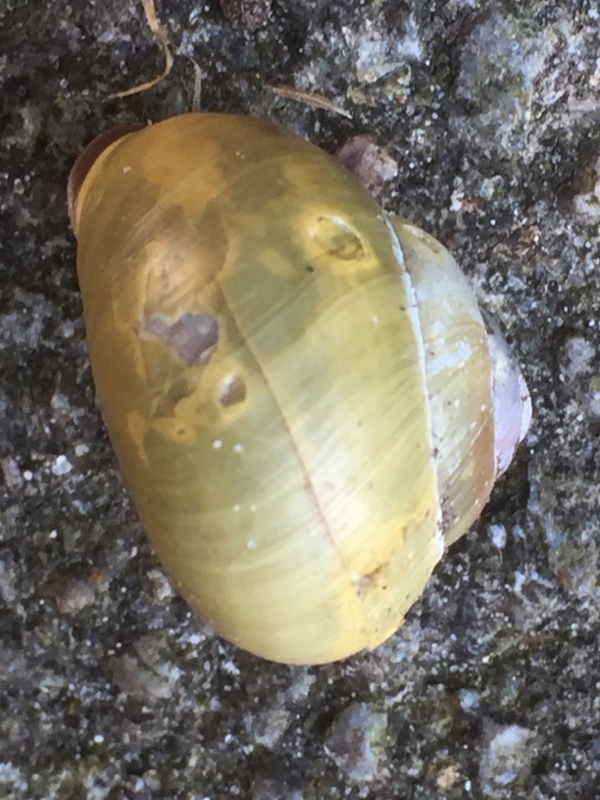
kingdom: Animalia
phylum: Mollusca
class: Gastropoda
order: Stylommatophora
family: Helicidae
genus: Cepaea
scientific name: Cepaea nemoralis
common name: Grovesnail
